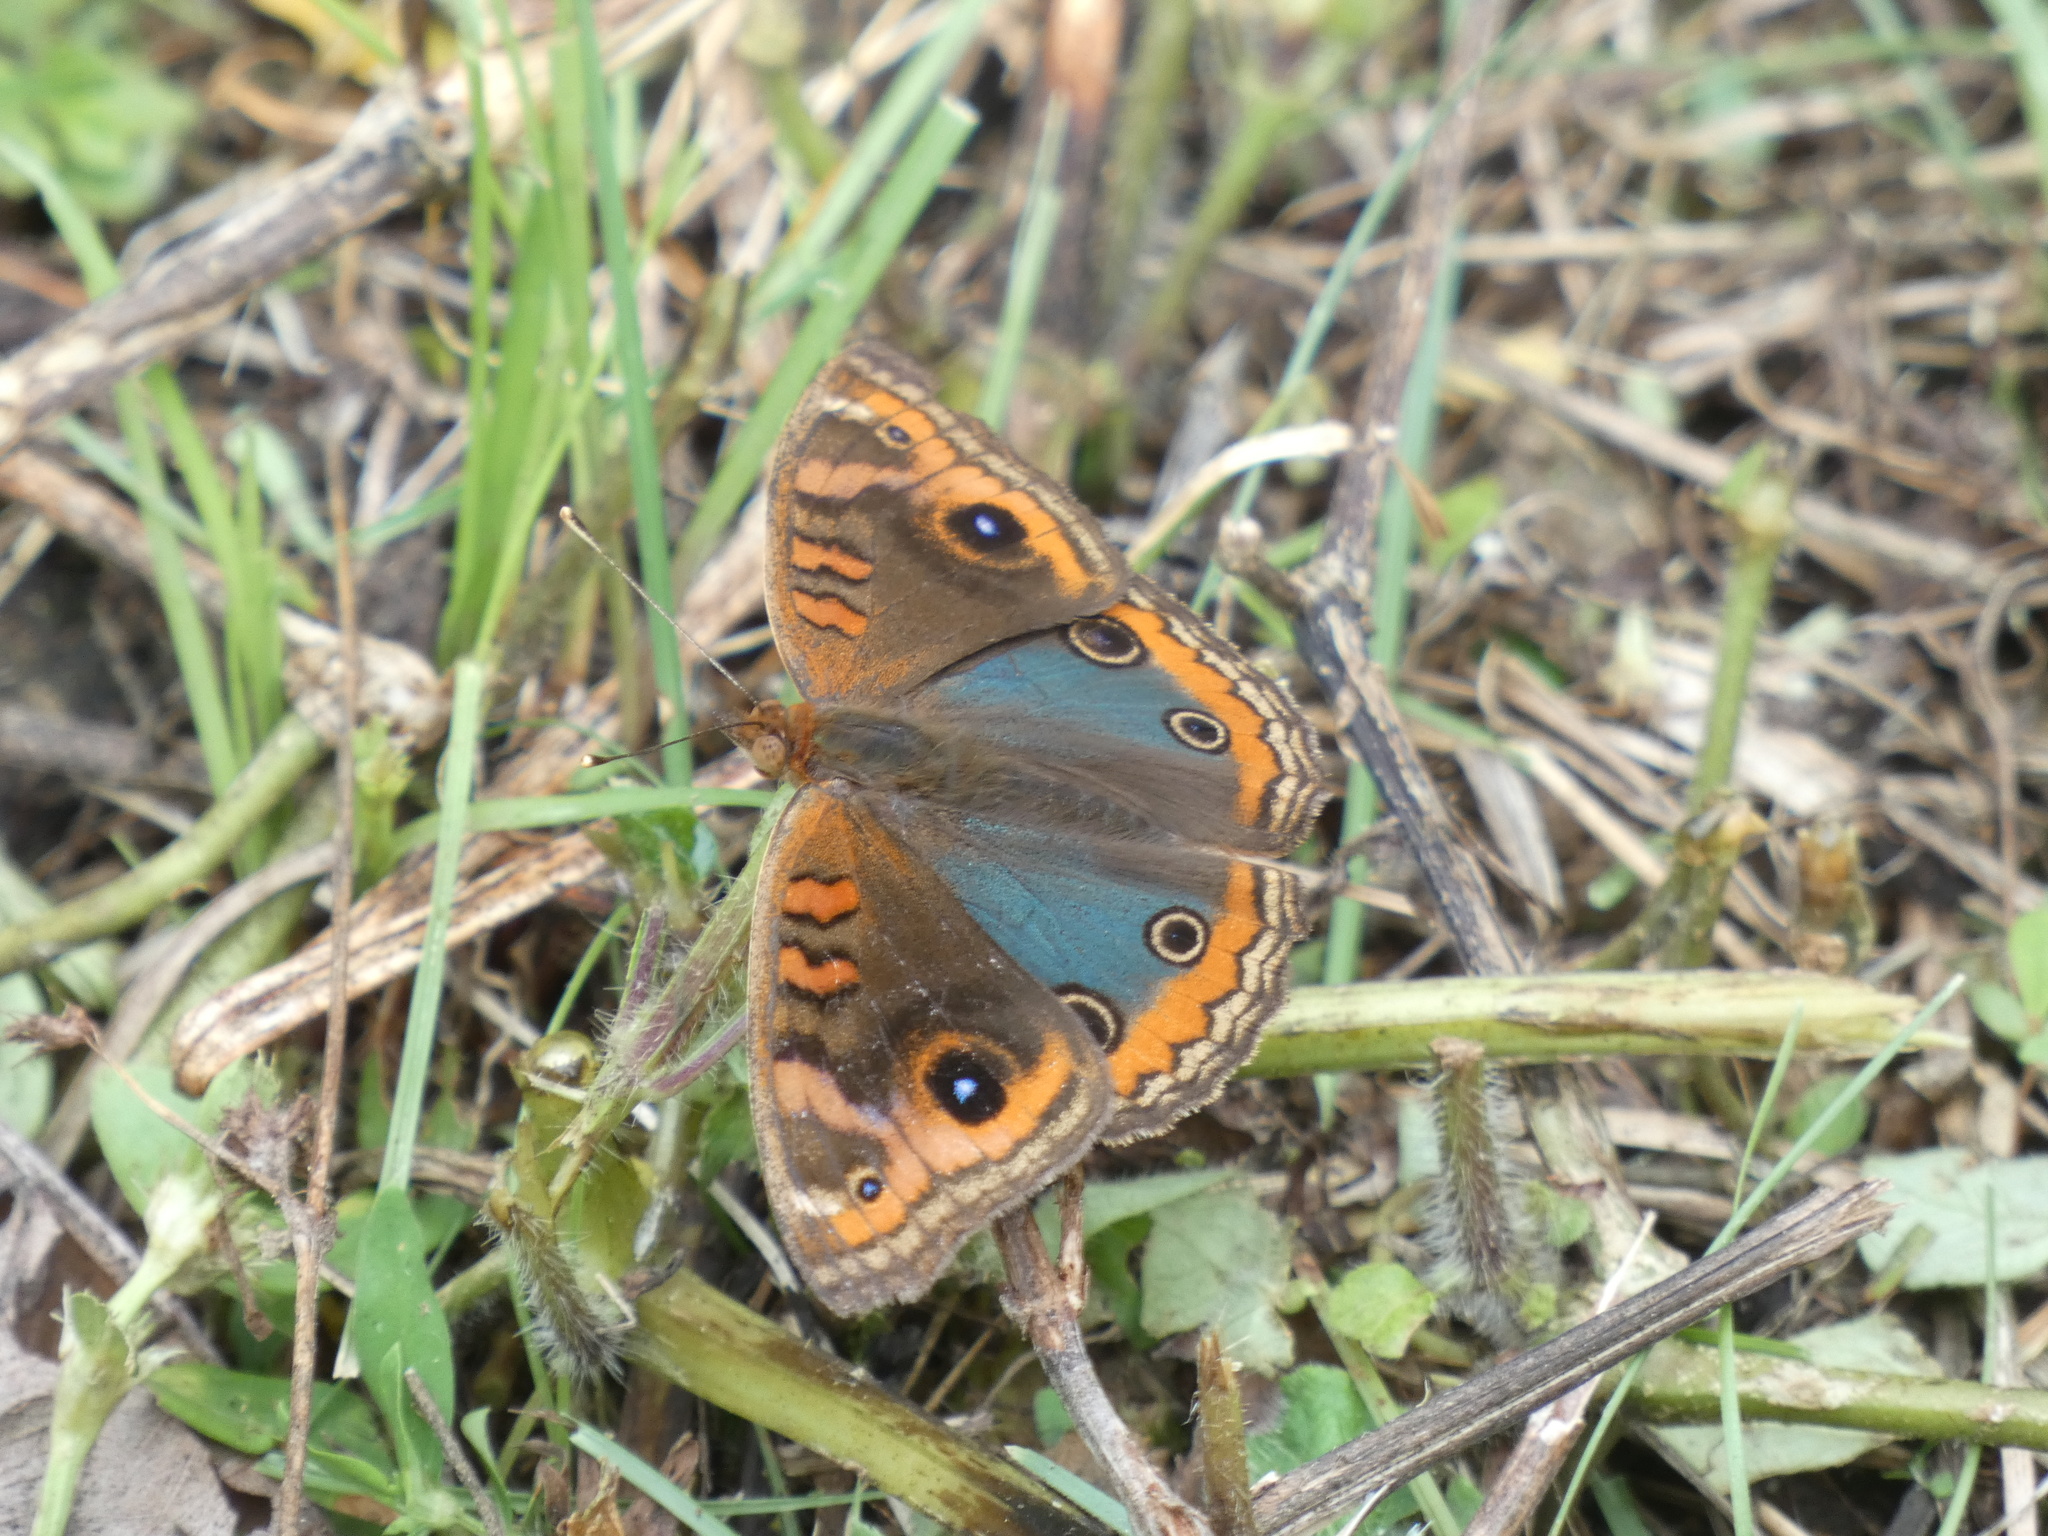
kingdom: Animalia
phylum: Arthropoda
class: Insecta
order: Lepidoptera
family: Nymphalidae
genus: Junonia
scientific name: Junonia evarete
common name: Black mangrove buckeye
